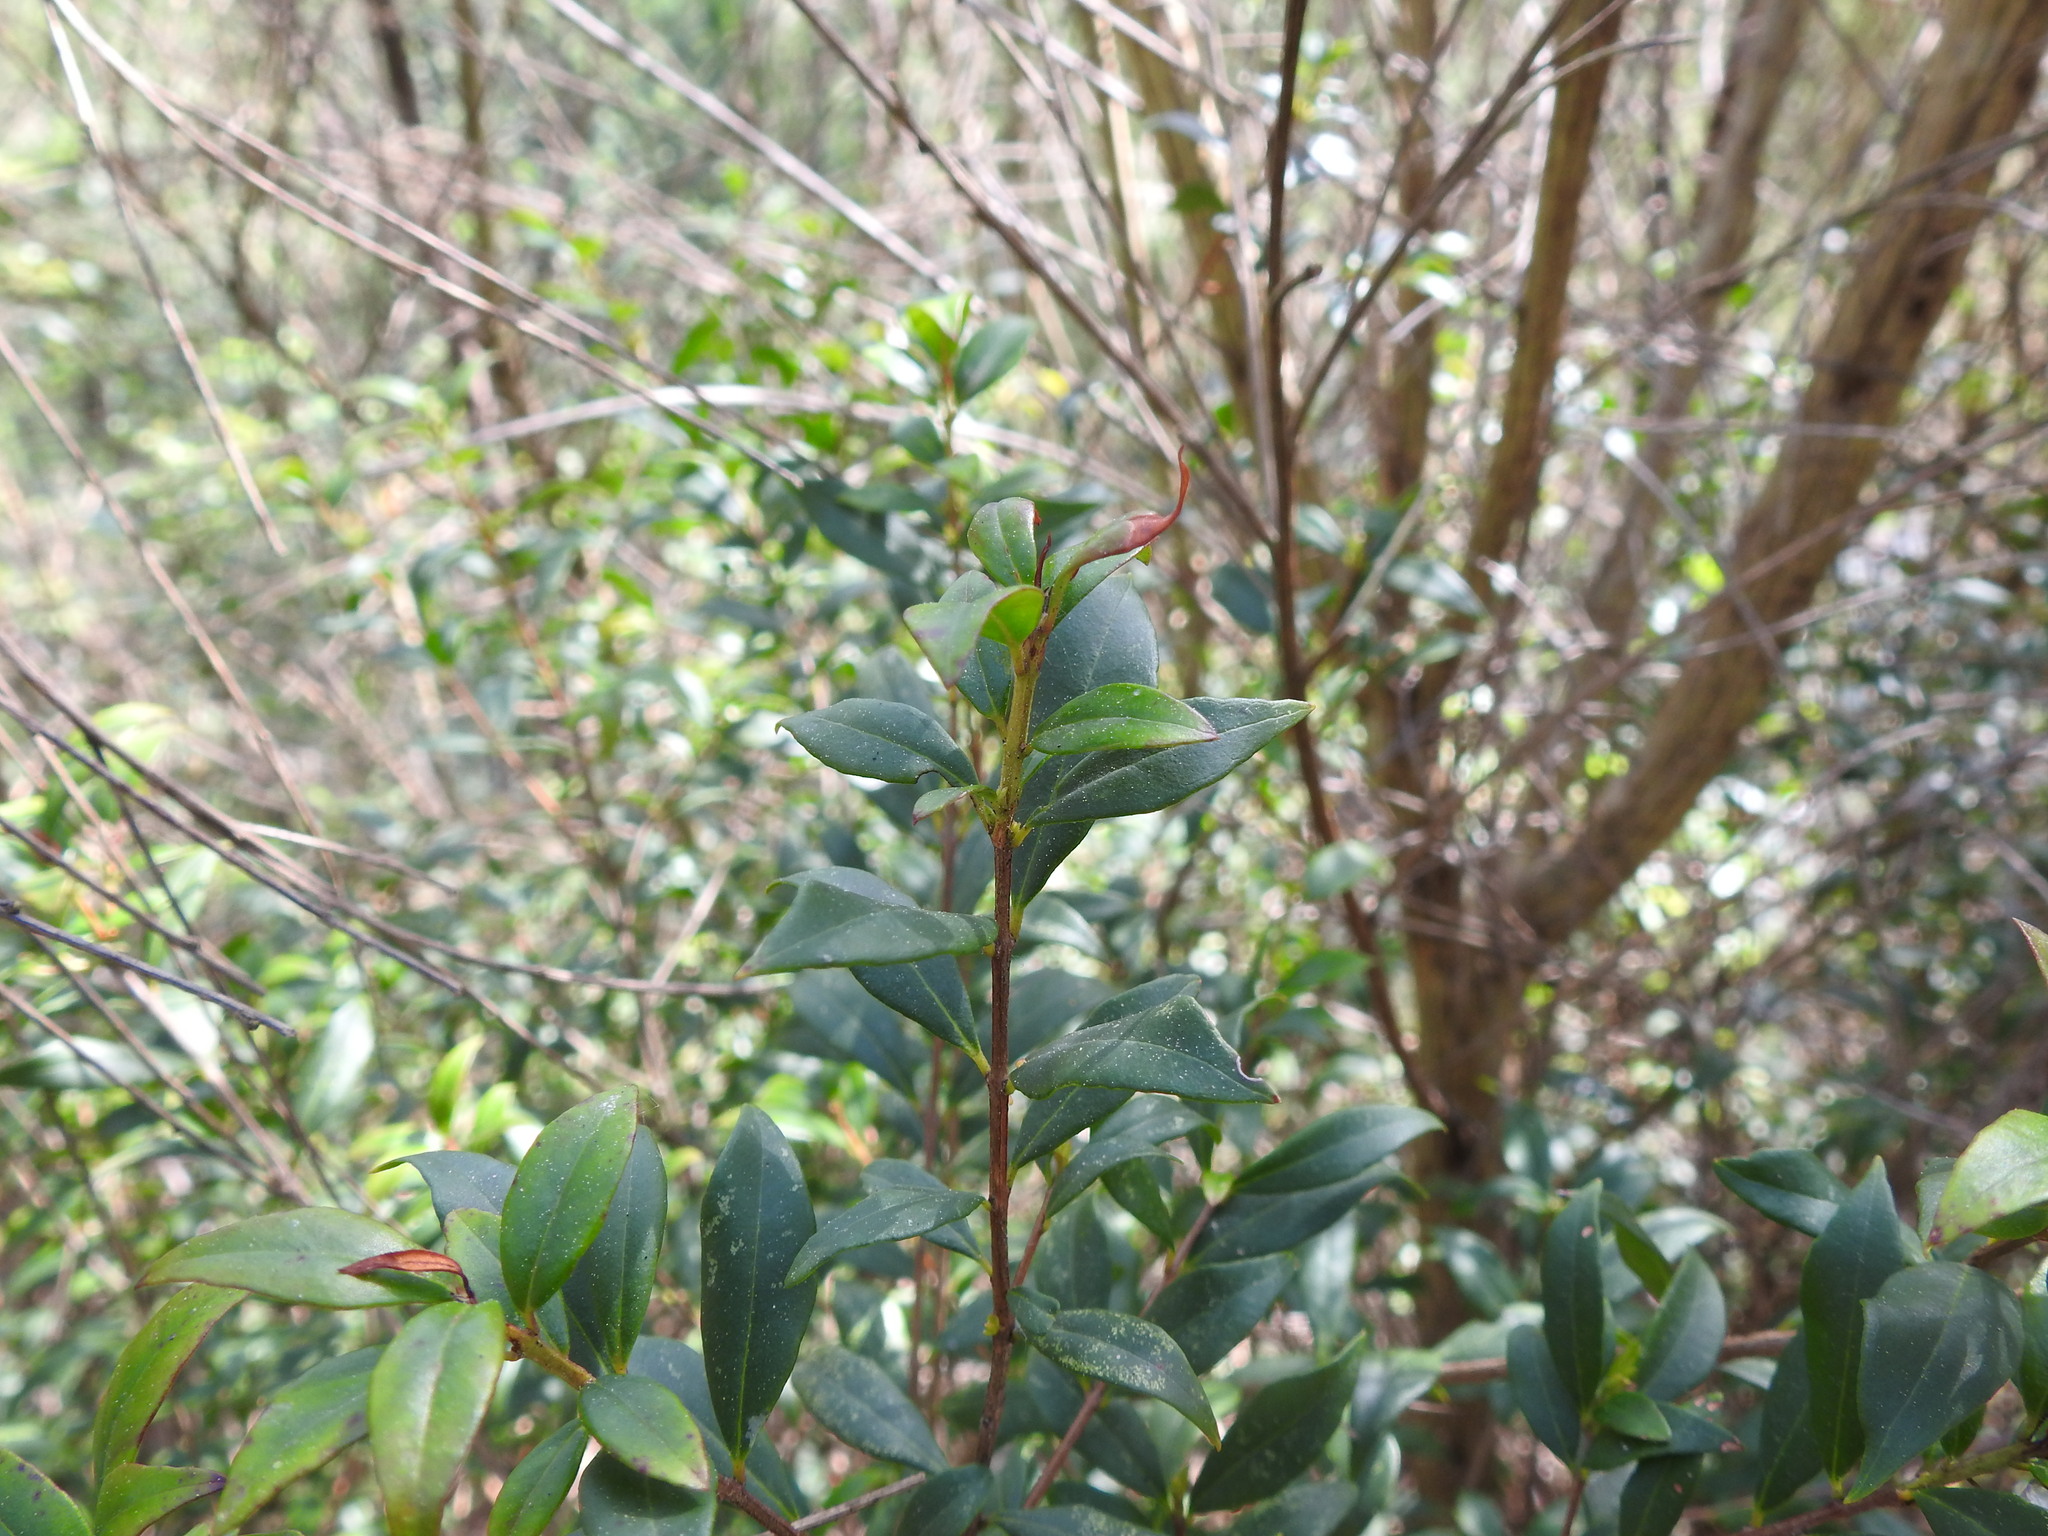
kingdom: Plantae
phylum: Tracheophyta
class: Magnoliopsida
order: Myrtales
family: Myrtaceae
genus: Myrtus
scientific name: Myrtus communis
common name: Myrtle
